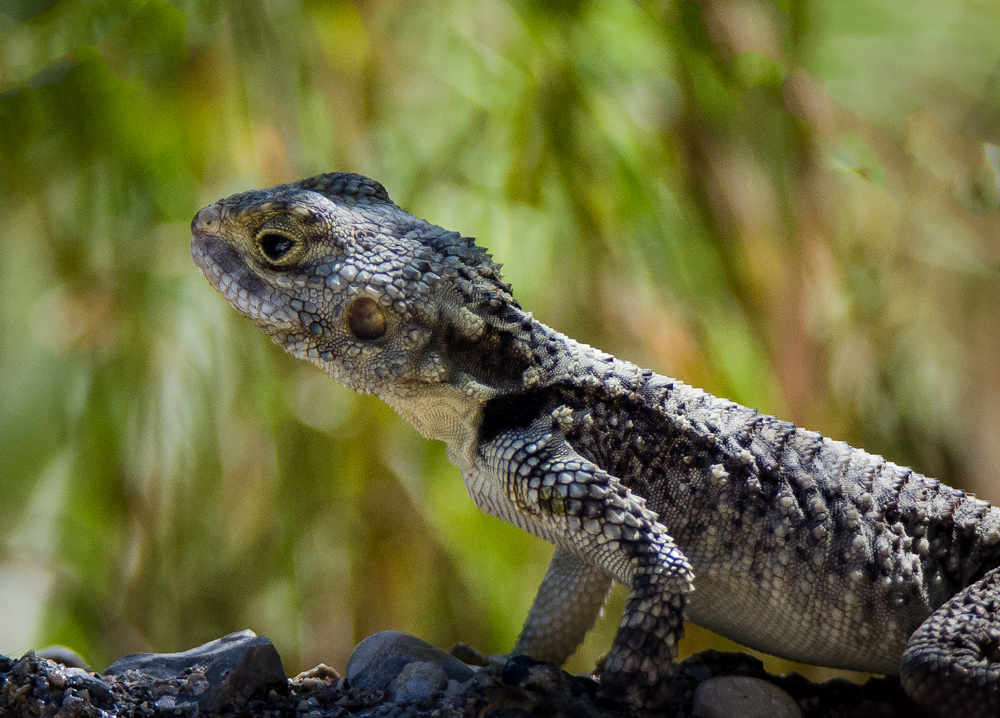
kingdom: Animalia
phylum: Chordata
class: Squamata
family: Agamidae
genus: Stellagama
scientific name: Stellagama stellio
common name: Starred agama
